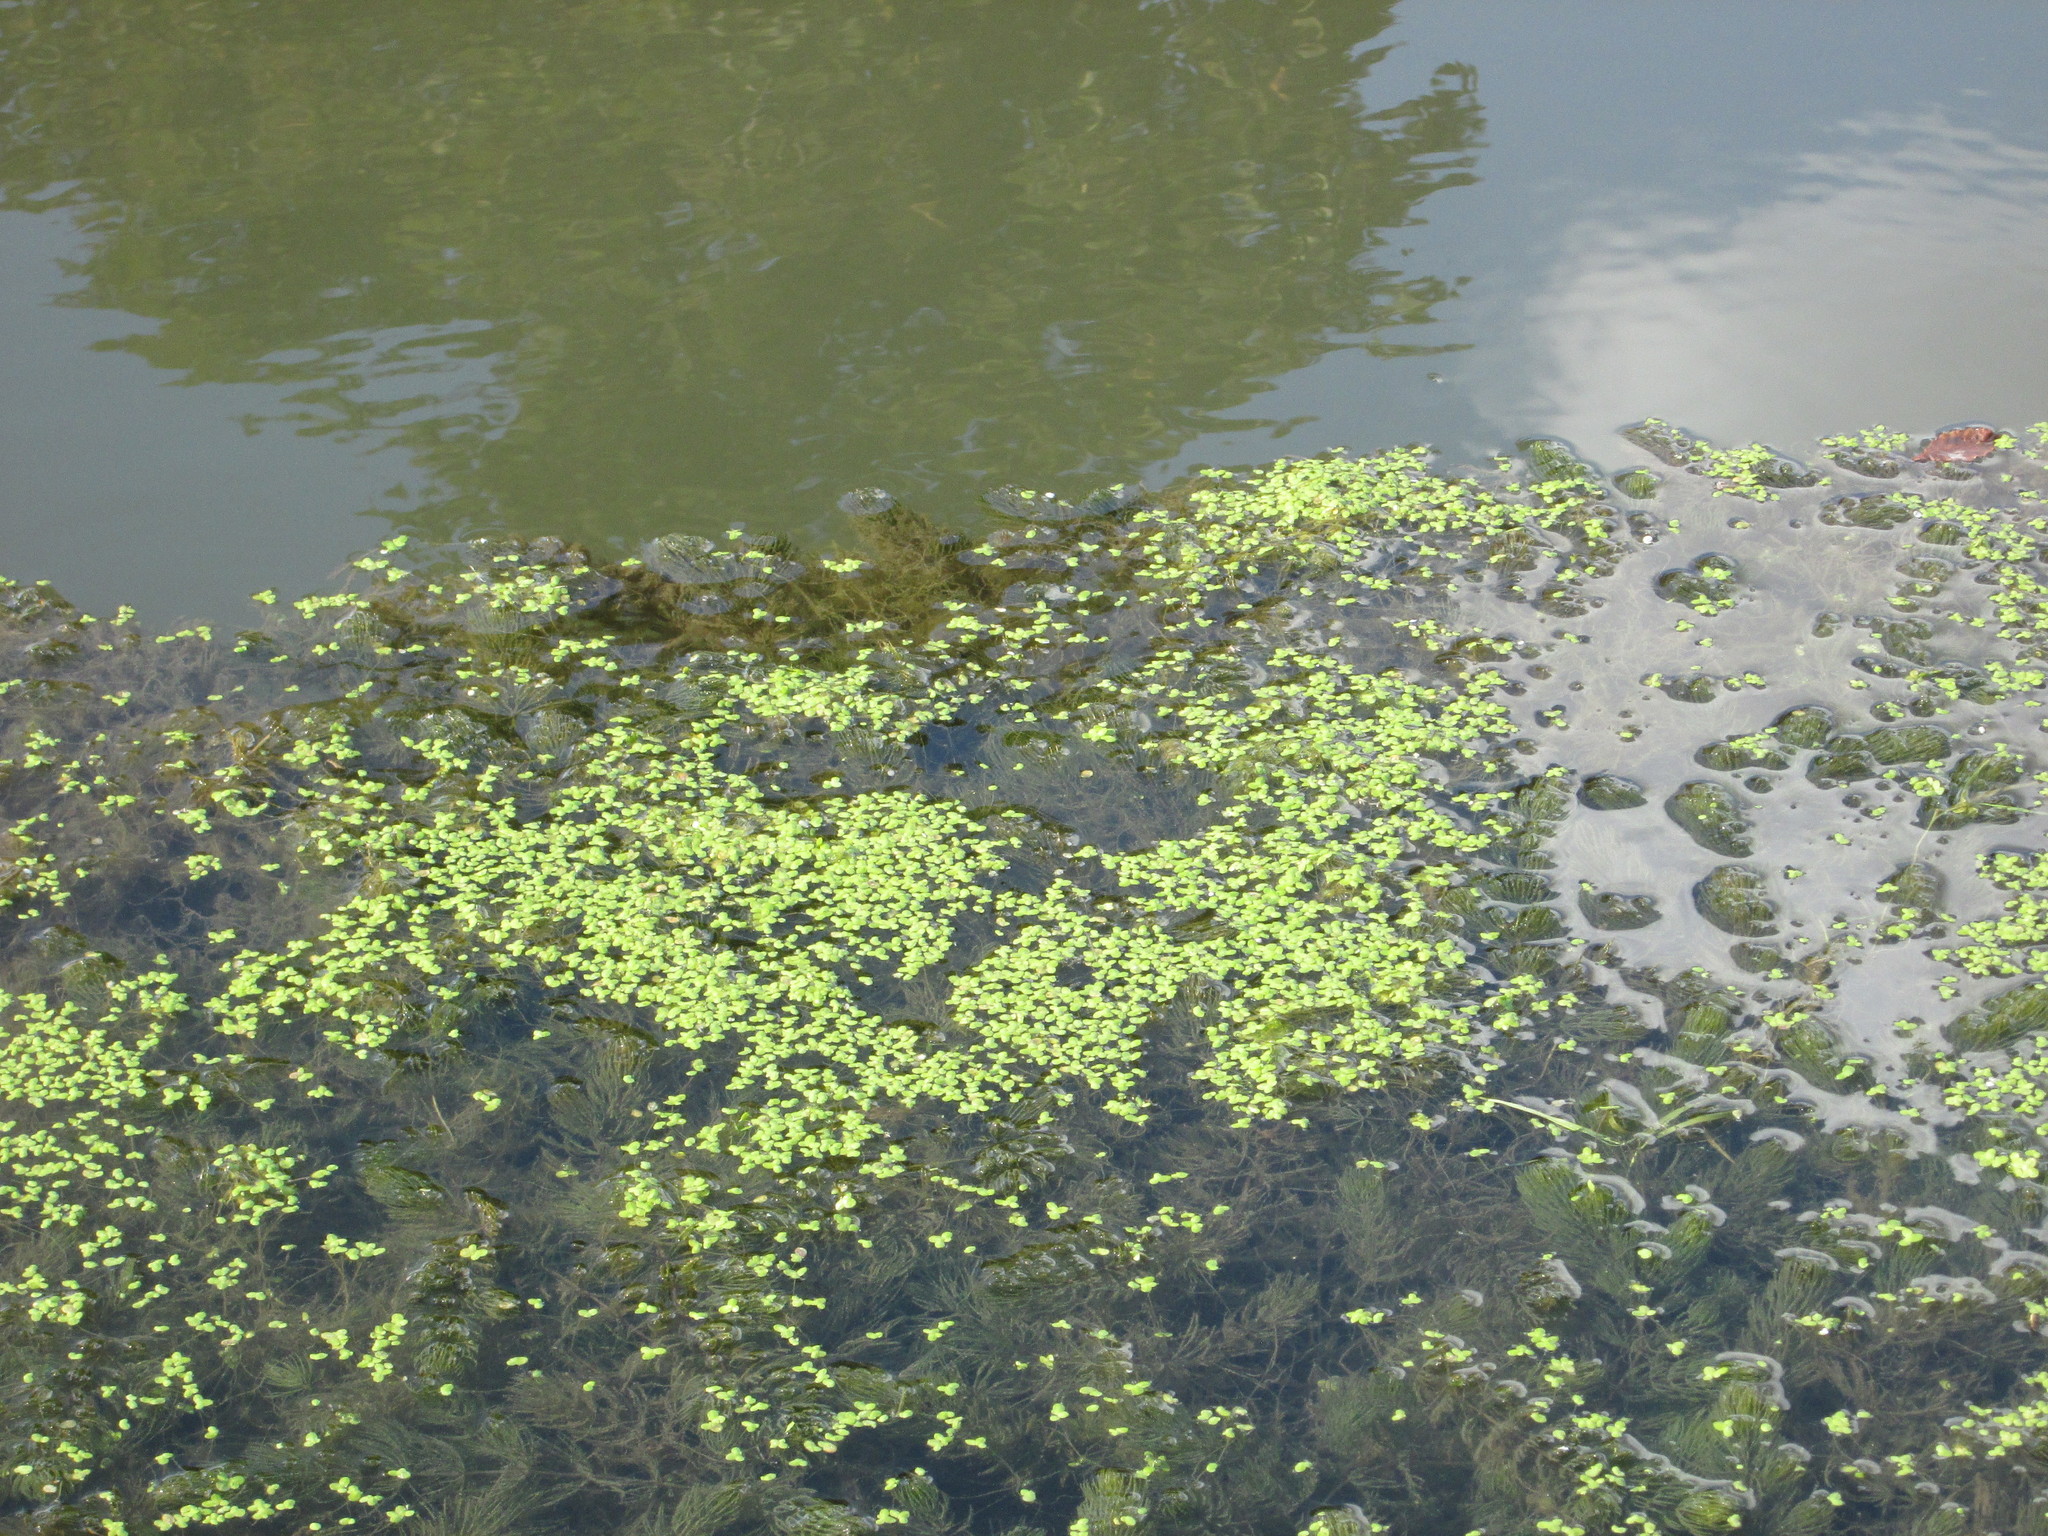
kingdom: Plantae
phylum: Tracheophyta
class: Liliopsida
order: Alismatales
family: Araceae
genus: Lemna
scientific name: Lemna minor
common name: Common duckweed
